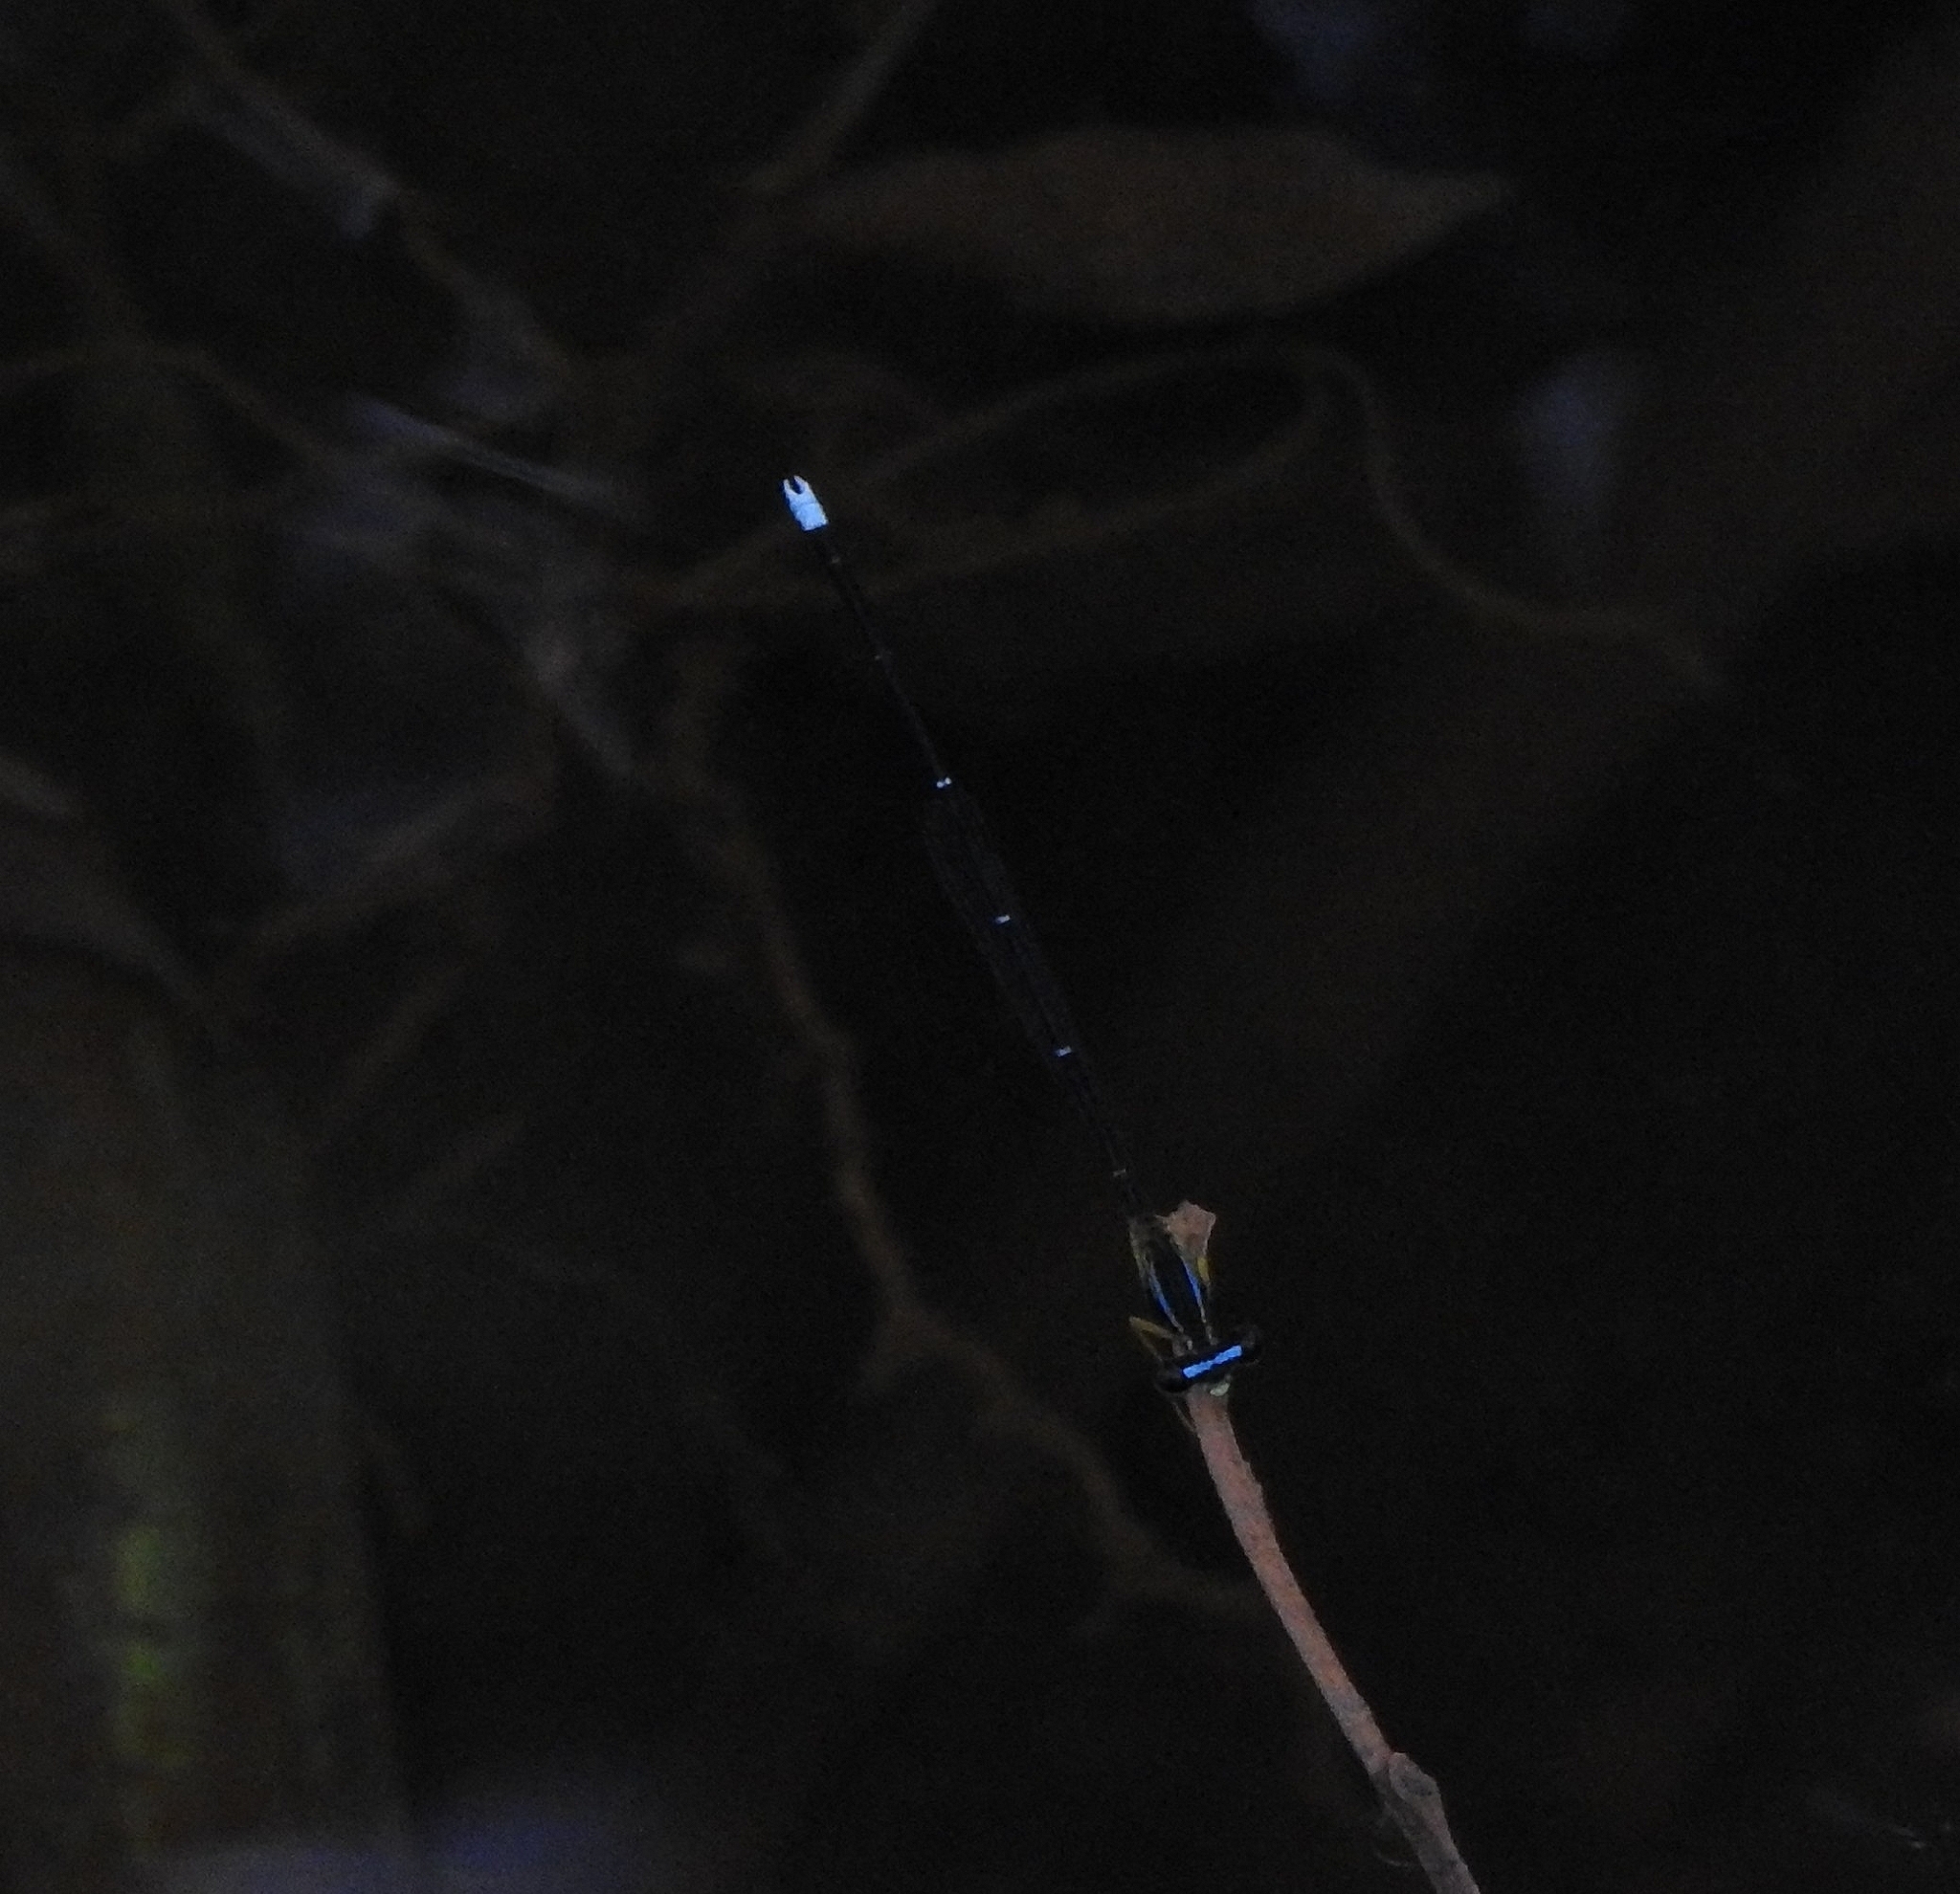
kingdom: Animalia
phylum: Arthropoda
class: Insecta
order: Odonata
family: Platycnemididae
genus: Copera
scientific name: Copera vittata
